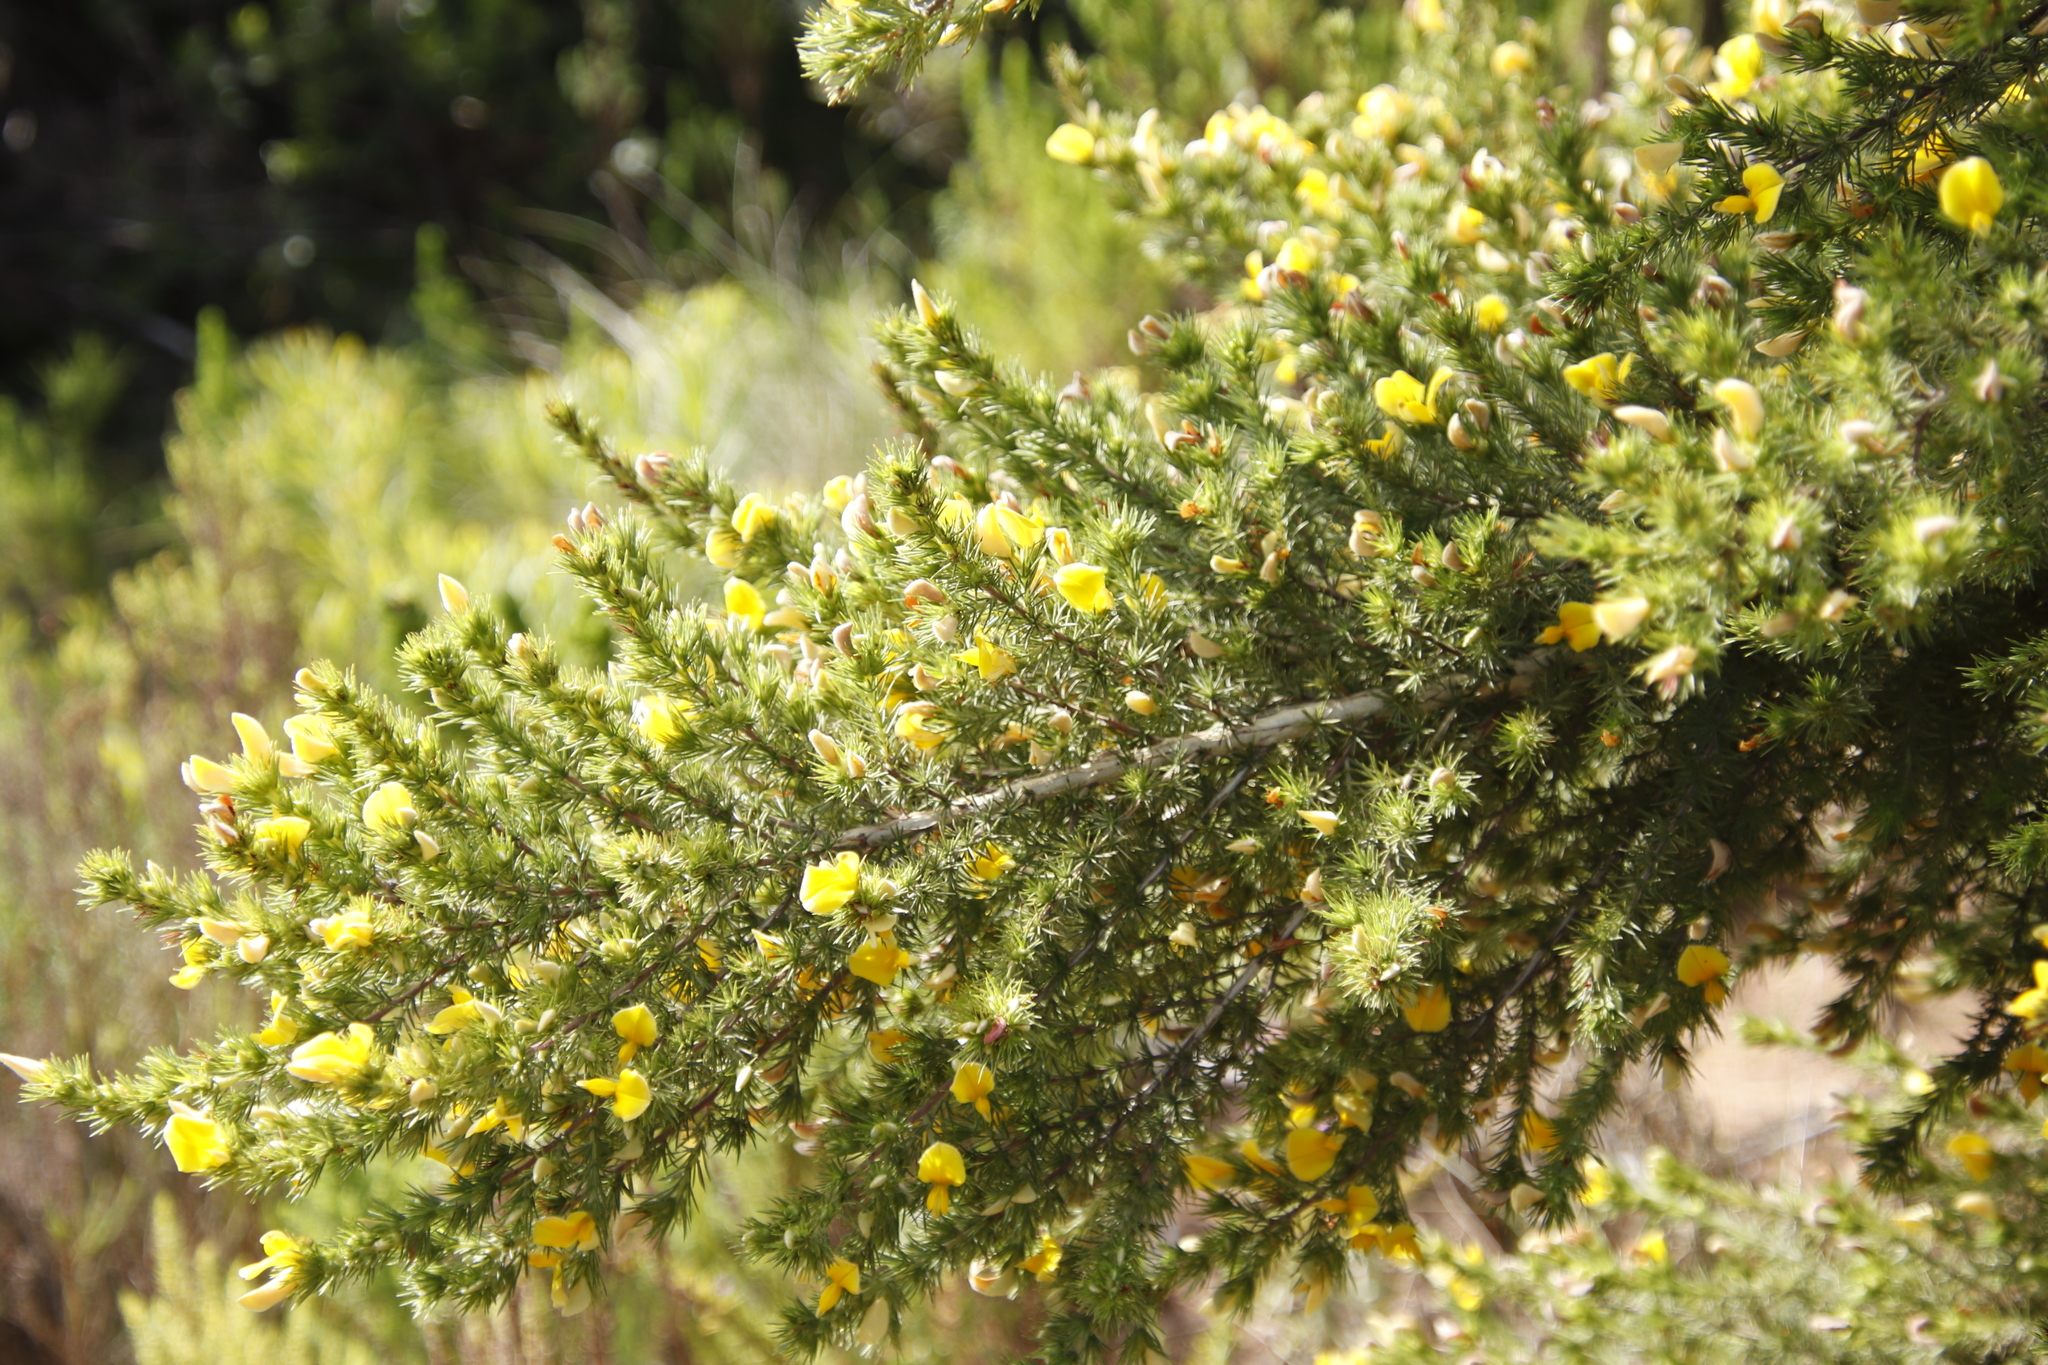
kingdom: Plantae
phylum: Tracheophyta
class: Magnoliopsida
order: Fabales
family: Fabaceae
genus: Aspalathus
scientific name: Aspalathus neglecta
